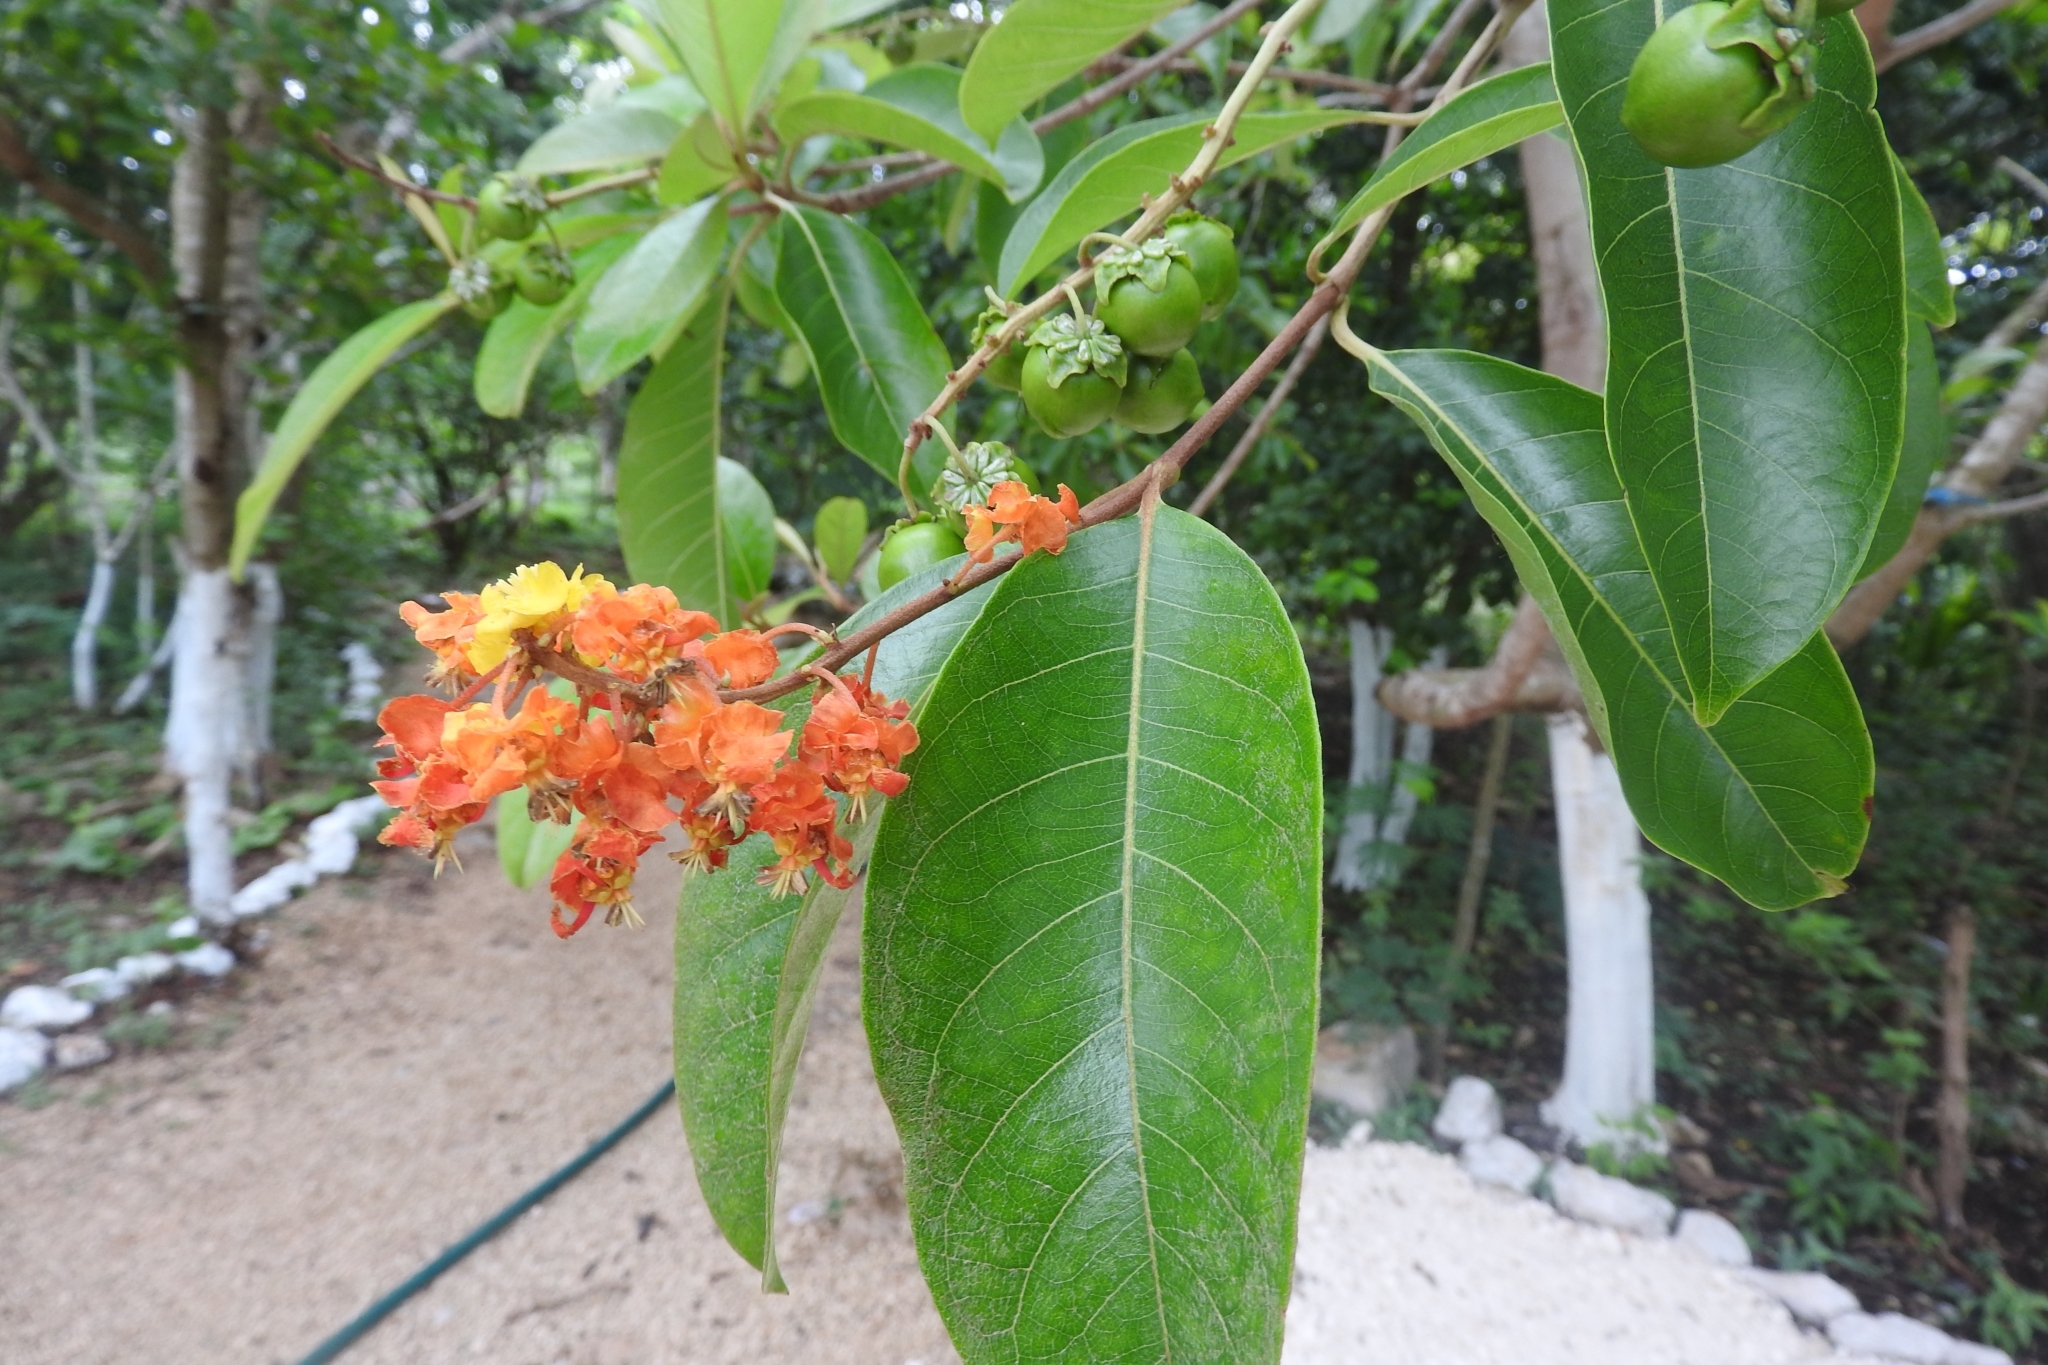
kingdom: Plantae
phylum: Tracheophyta
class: Magnoliopsida
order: Malpighiales
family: Malpighiaceae
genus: Byrsonima
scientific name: Byrsonima crassifolia
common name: Golden spoon
